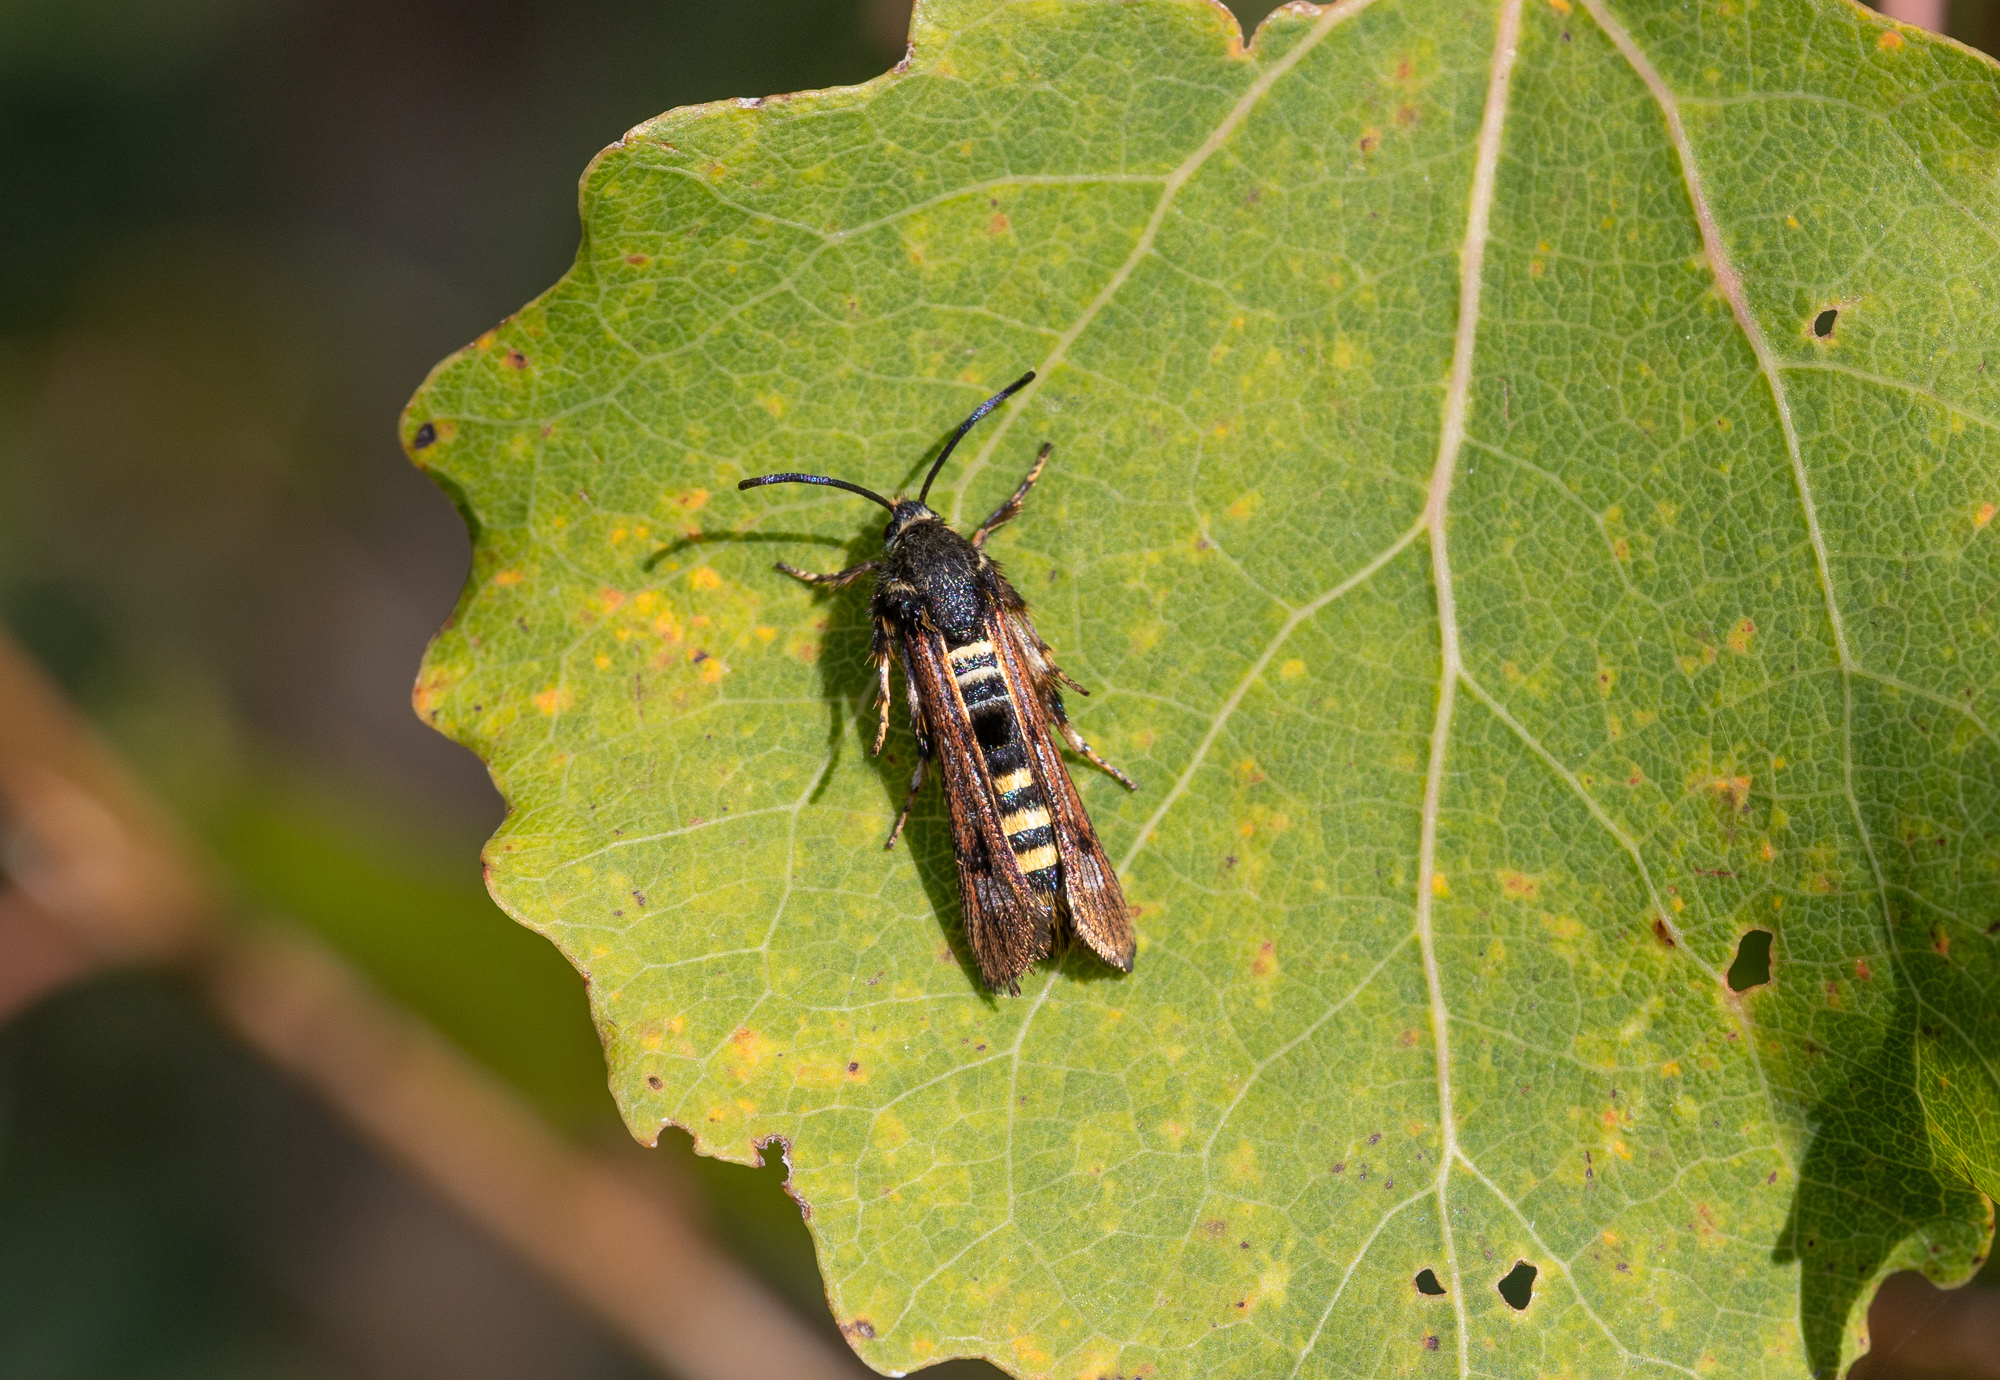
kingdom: Animalia
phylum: Arthropoda
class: Insecta
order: Lepidoptera
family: Sesiidae
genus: Pennisetia
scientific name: Pennisetia hylaeiformis
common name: Raspberry clearwing
